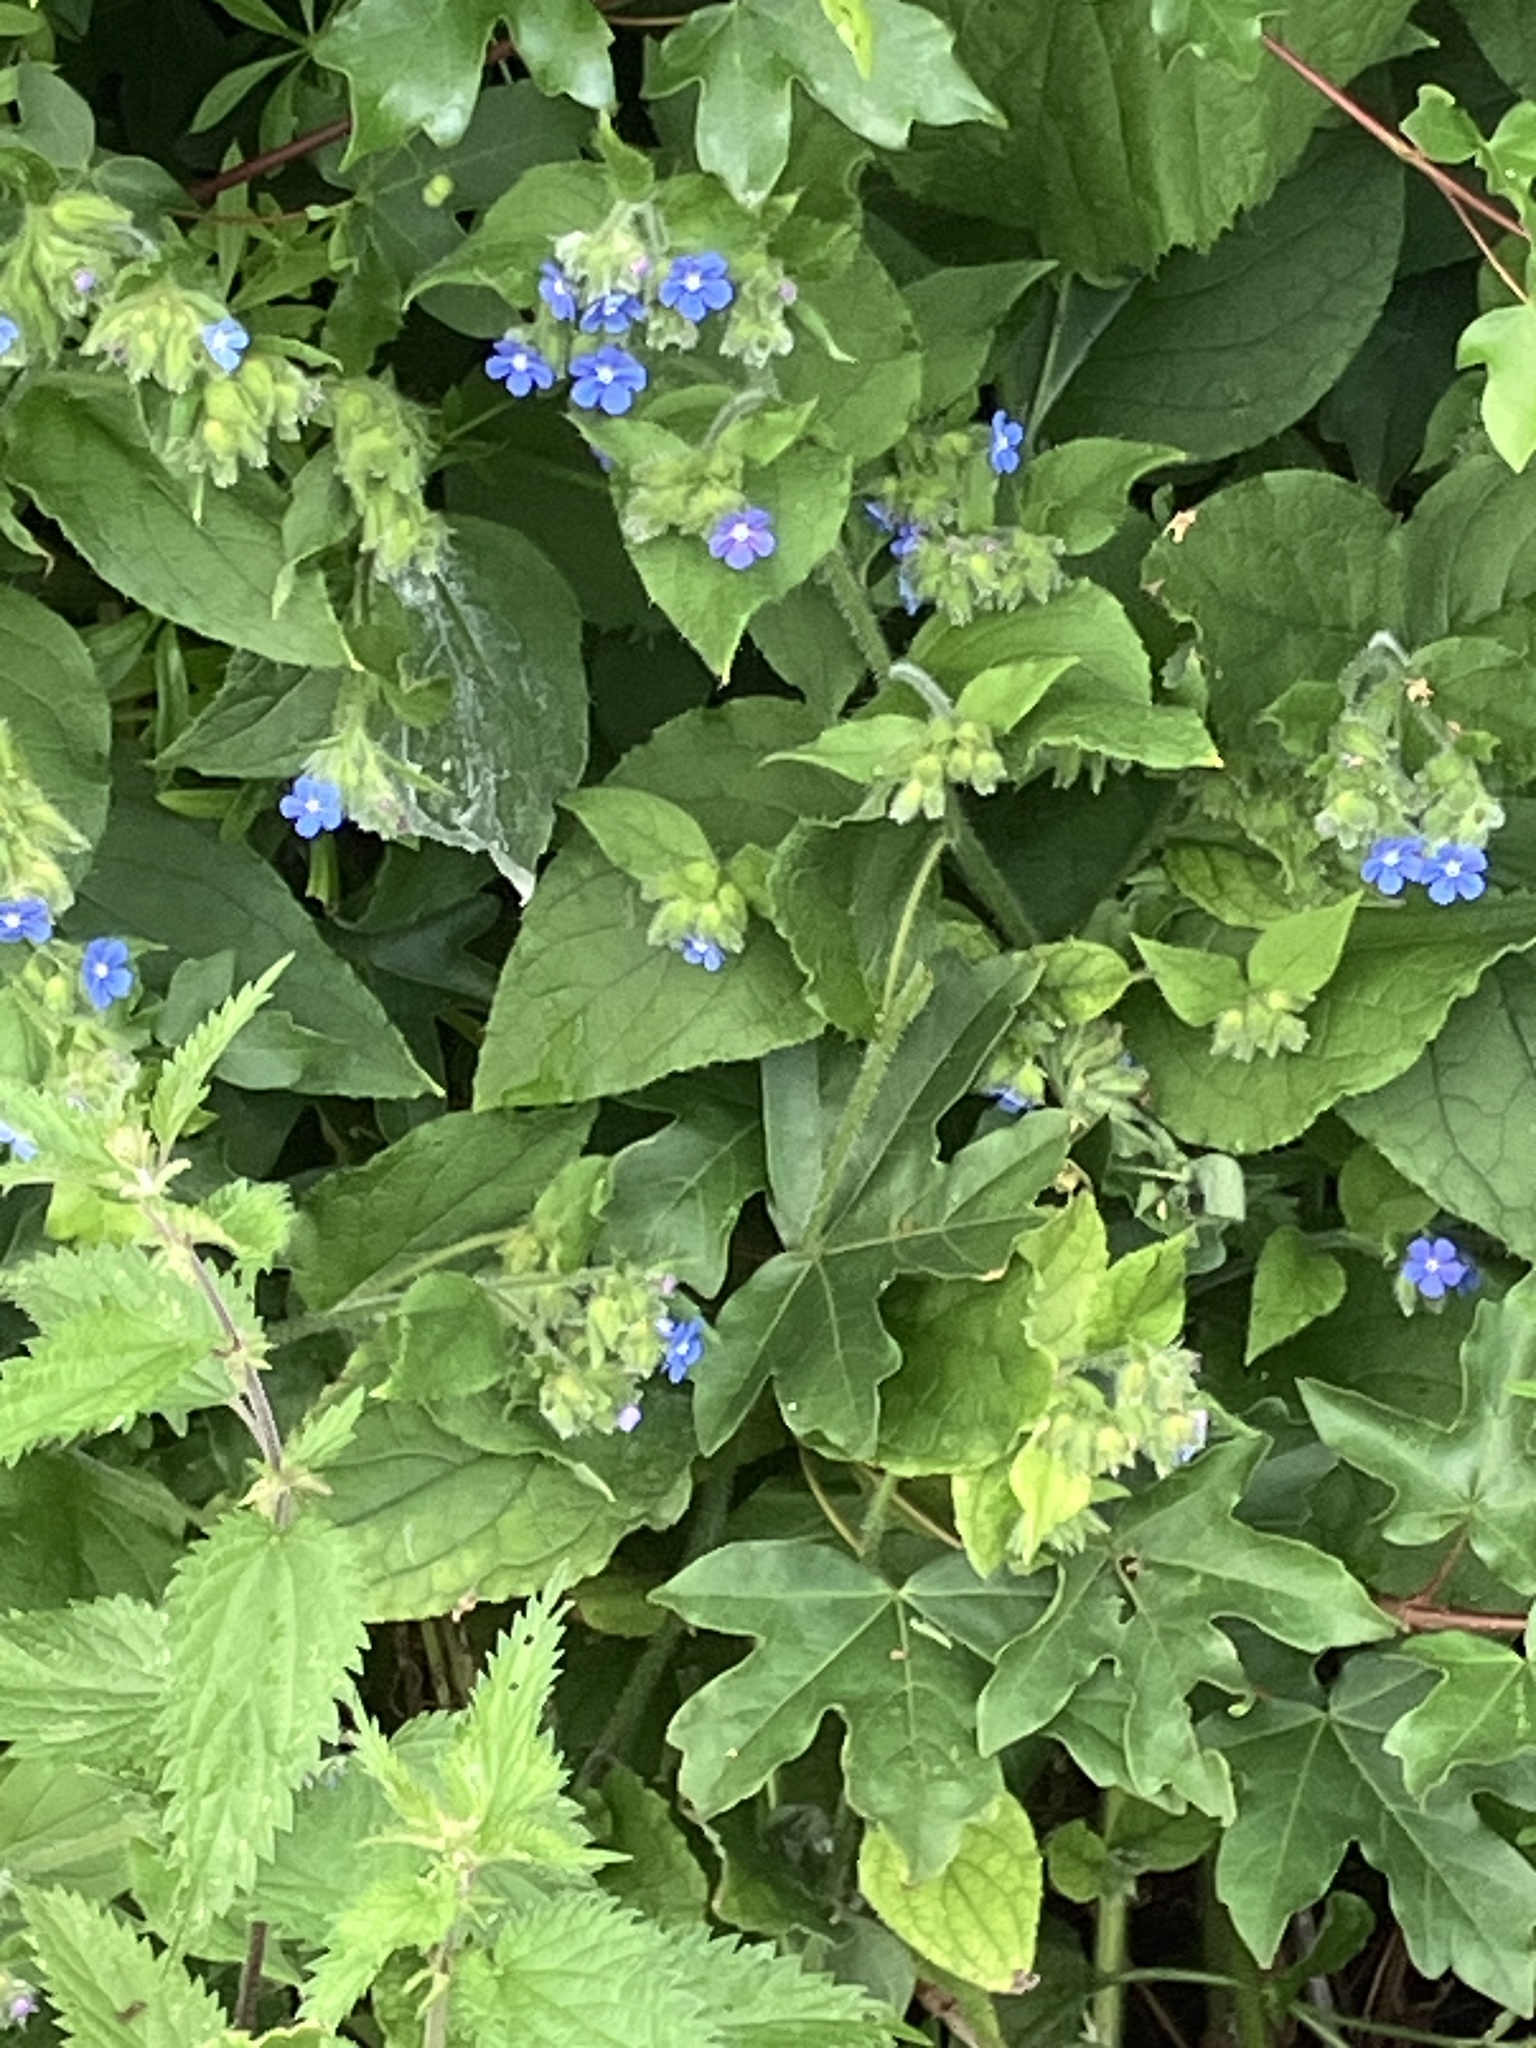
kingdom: Plantae
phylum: Tracheophyta
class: Magnoliopsida
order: Boraginales
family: Boraginaceae
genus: Pentaglottis
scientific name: Pentaglottis sempervirens
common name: Green alkanet
